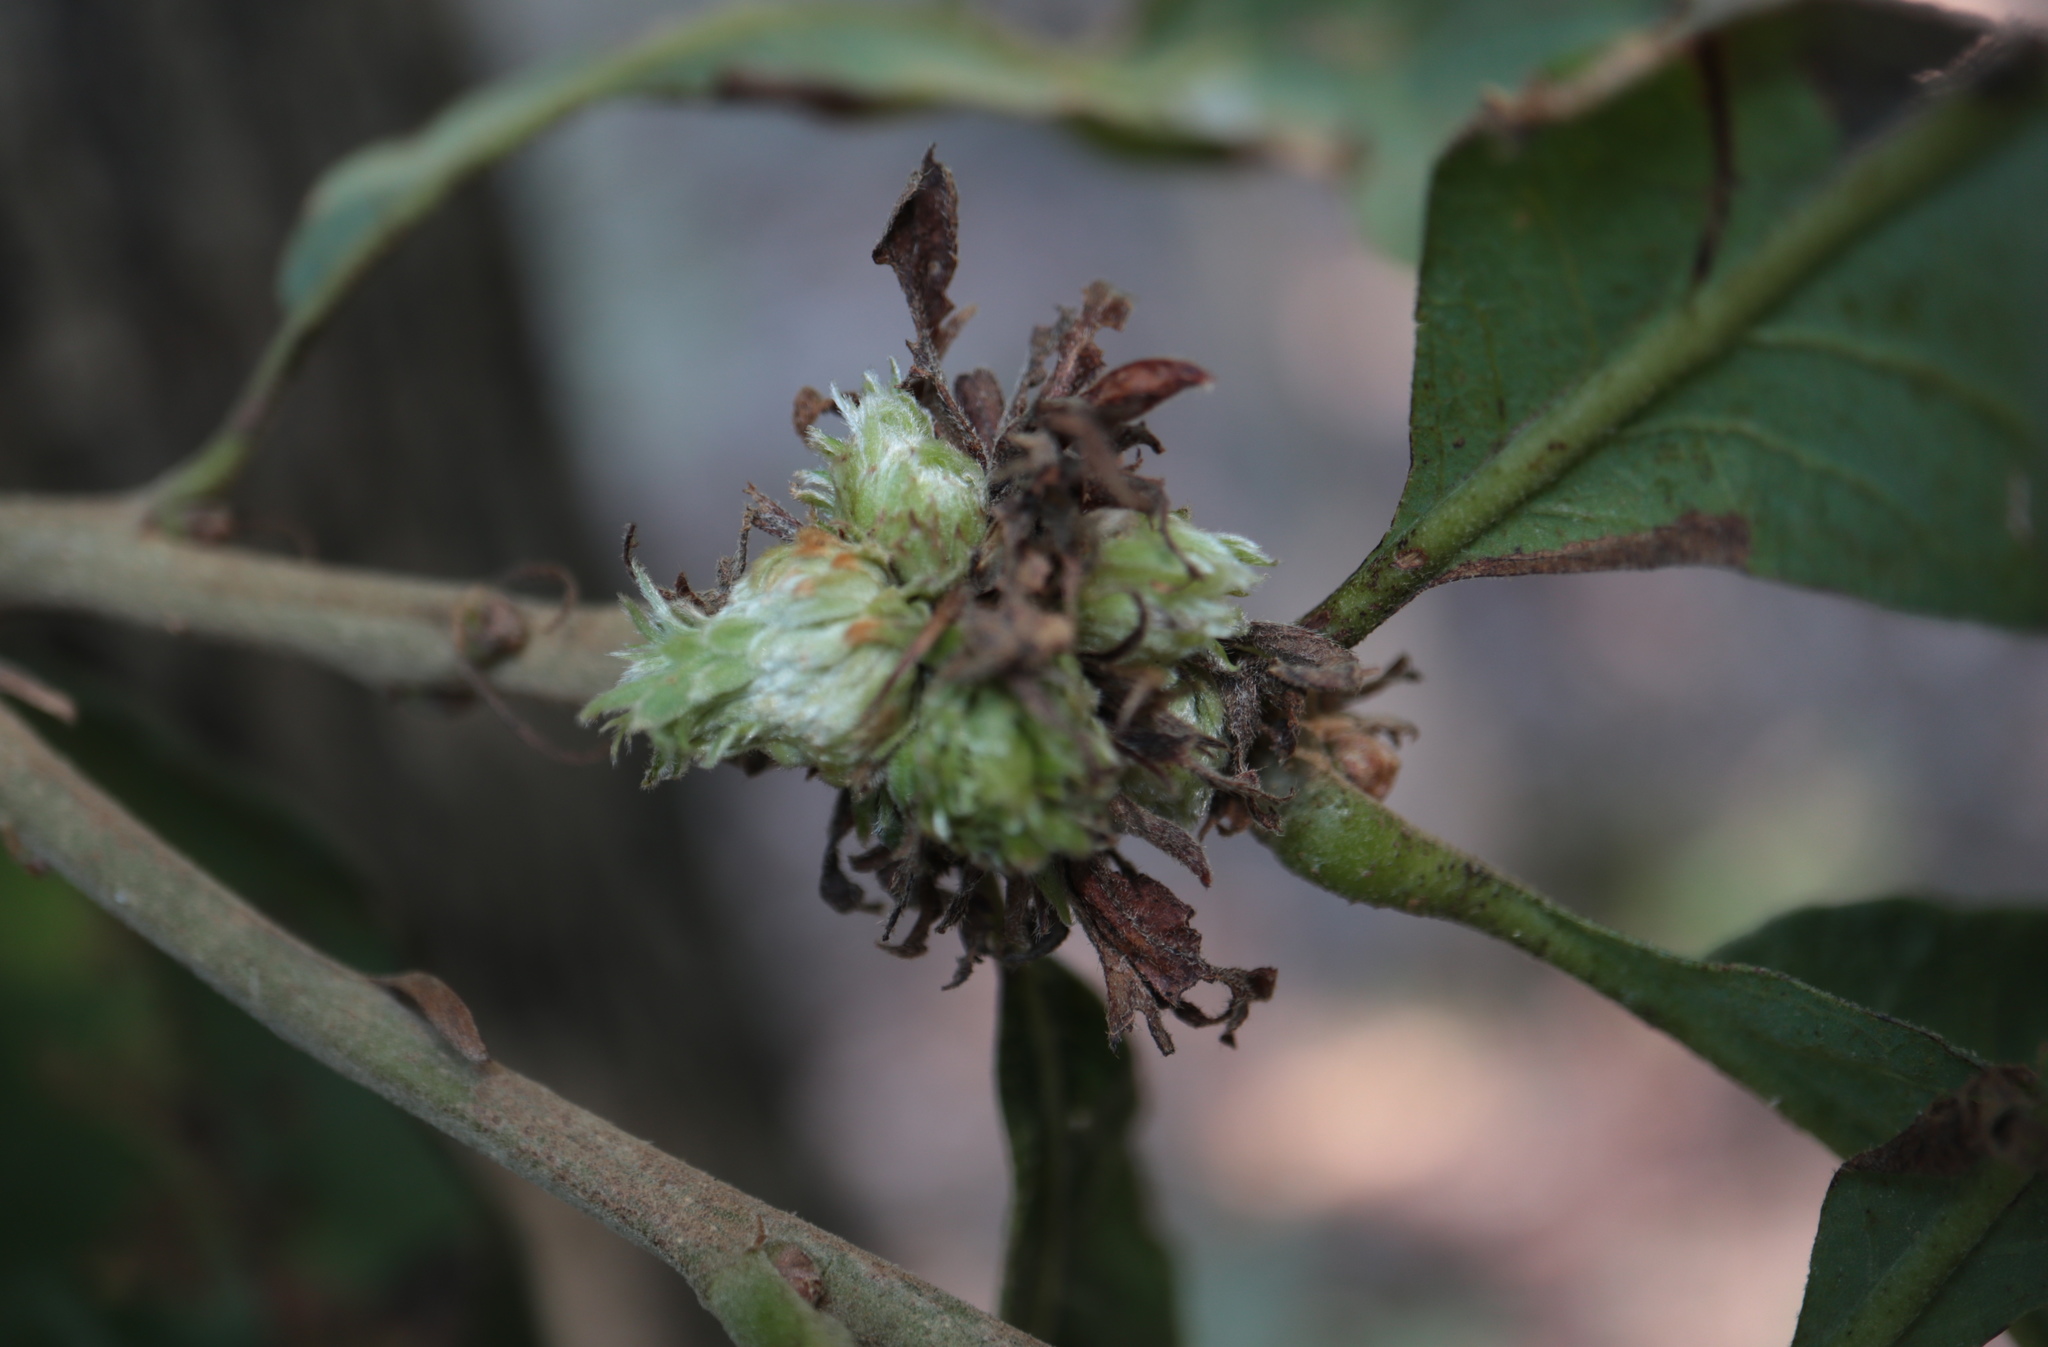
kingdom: Animalia
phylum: Arthropoda
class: Insecta
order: Hymenoptera
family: Cynipidae
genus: Andricus
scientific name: Andricus
